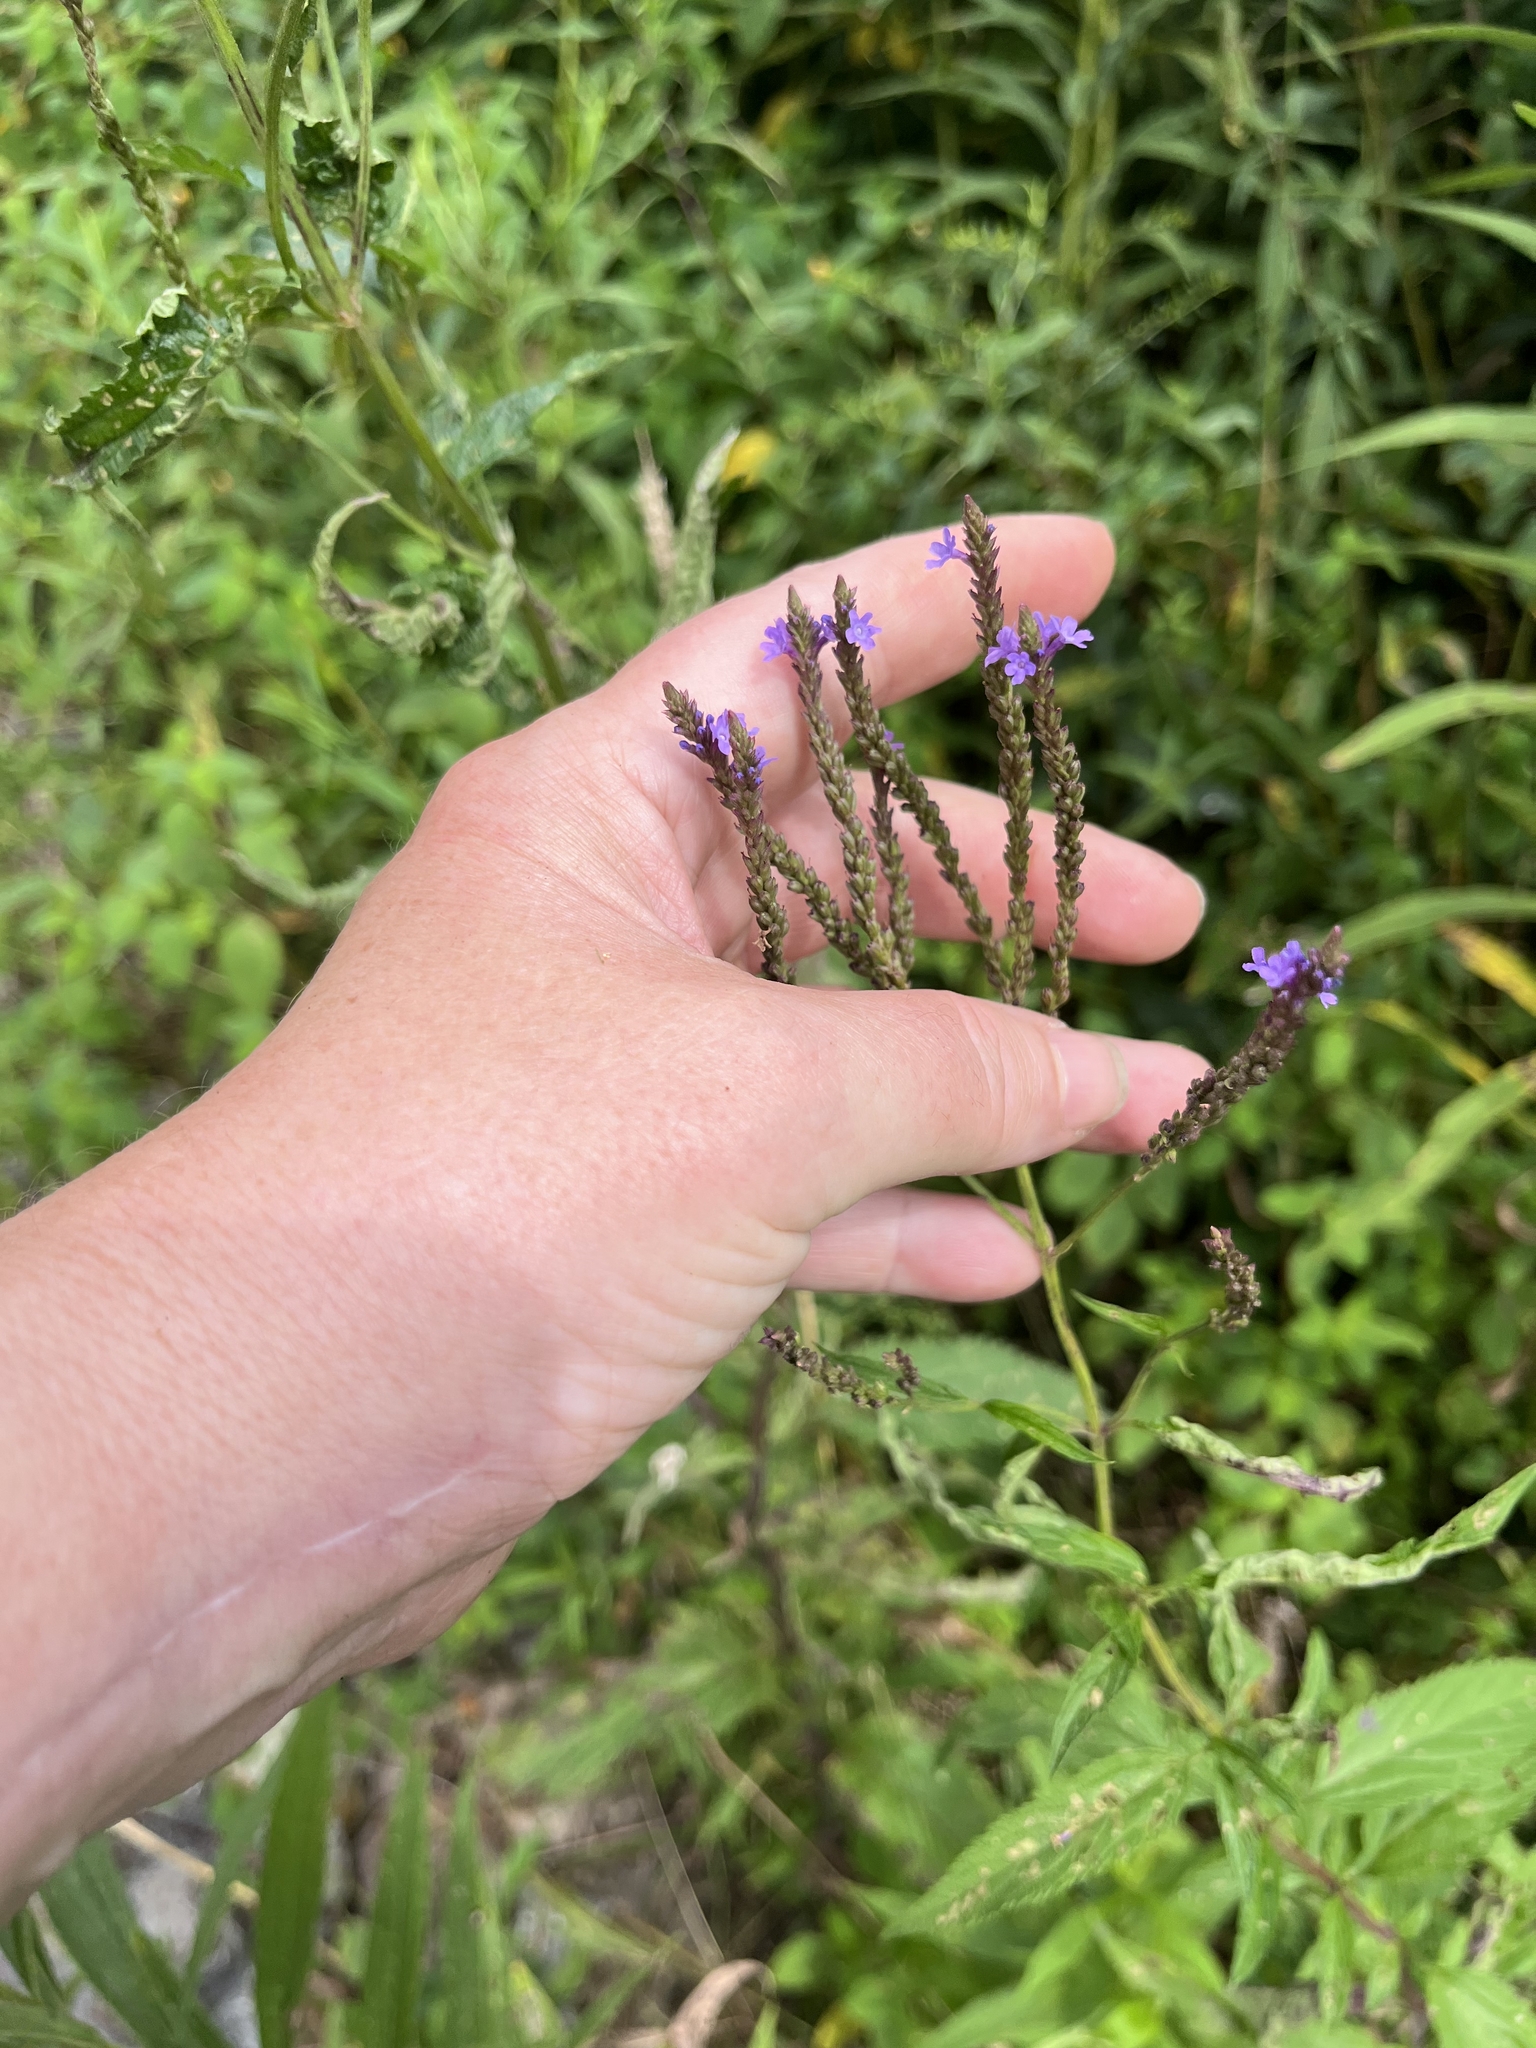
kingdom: Plantae
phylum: Tracheophyta
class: Magnoliopsida
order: Lamiales
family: Verbenaceae
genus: Verbena
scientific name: Verbena hastata
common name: American blue vervain
